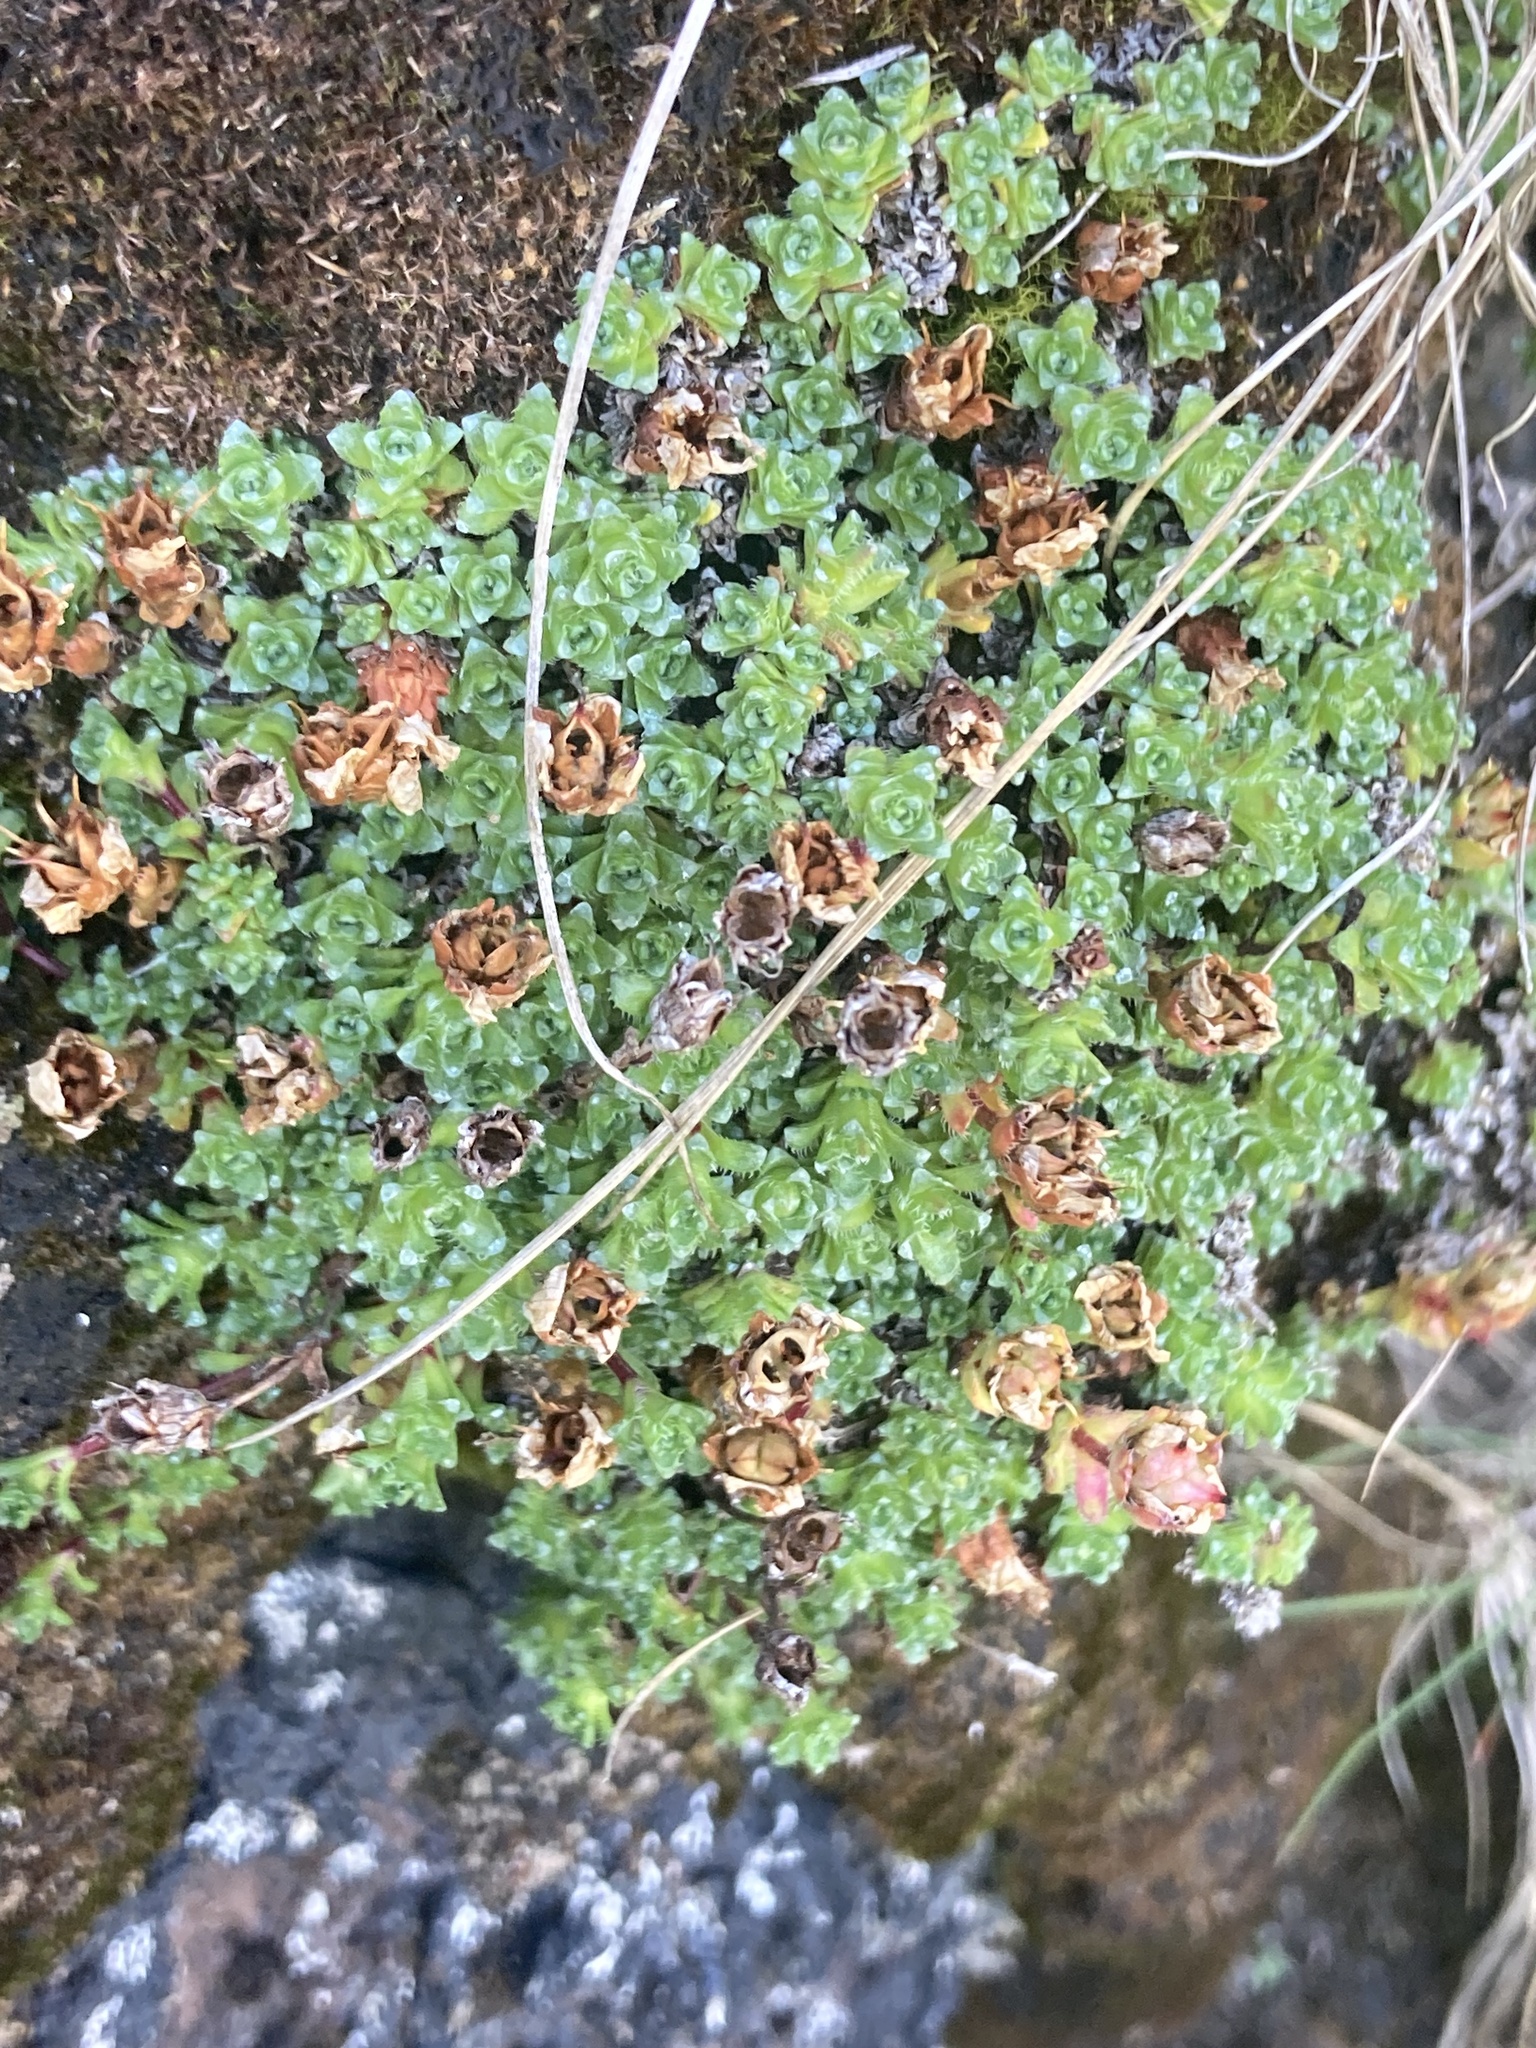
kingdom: Plantae
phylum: Tracheophyta
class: Magnoliopsida
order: Saxifragales
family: Saxifragaceae
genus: Saxifraga
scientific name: Saxifraga oppositifolia
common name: Purple saxifrage
